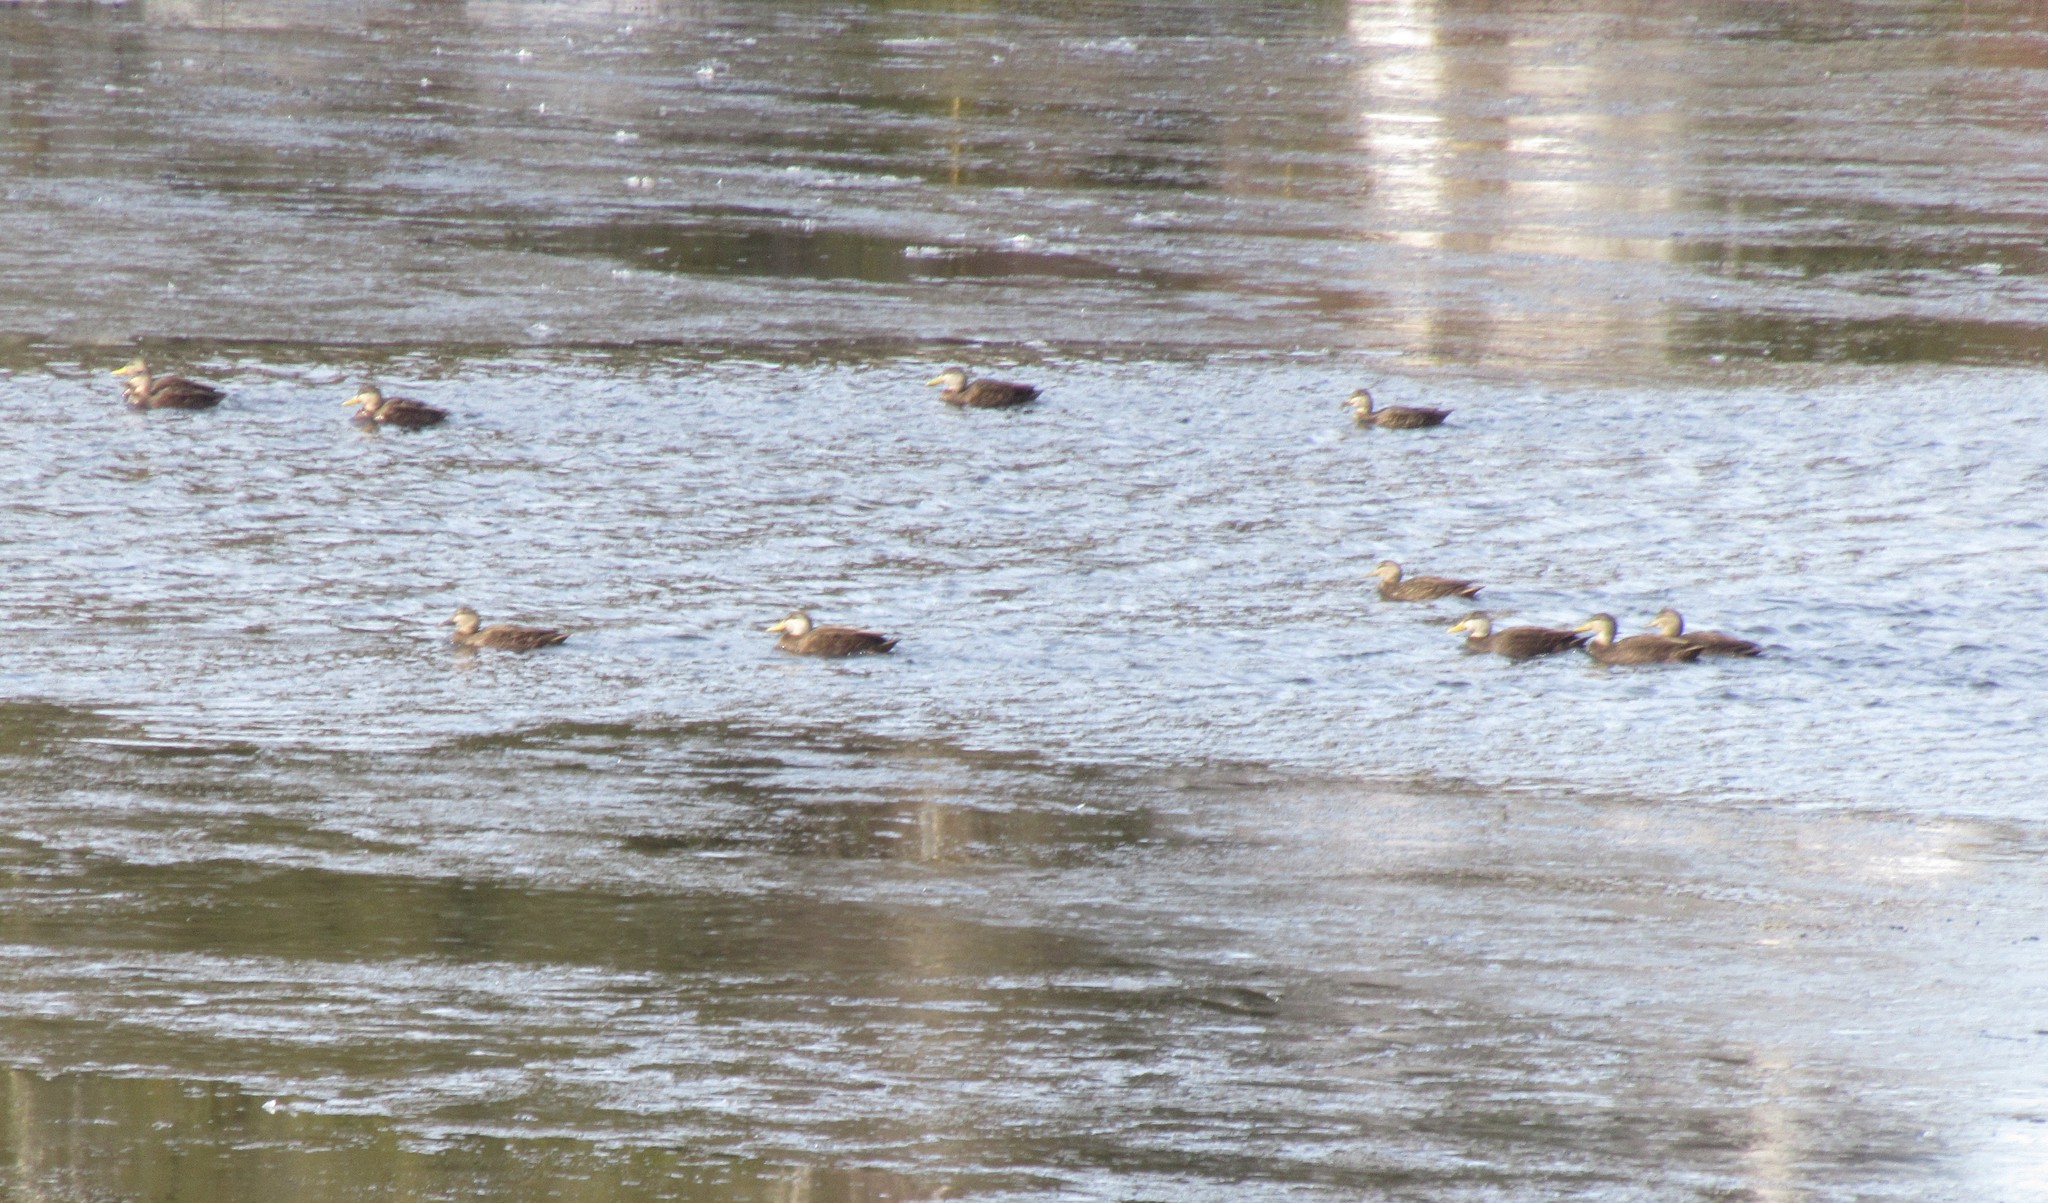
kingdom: Animalia
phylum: Chordata
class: Aves
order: Anseriformes
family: Anatidae
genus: Anas
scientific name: Anas rubripes
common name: American black duck
